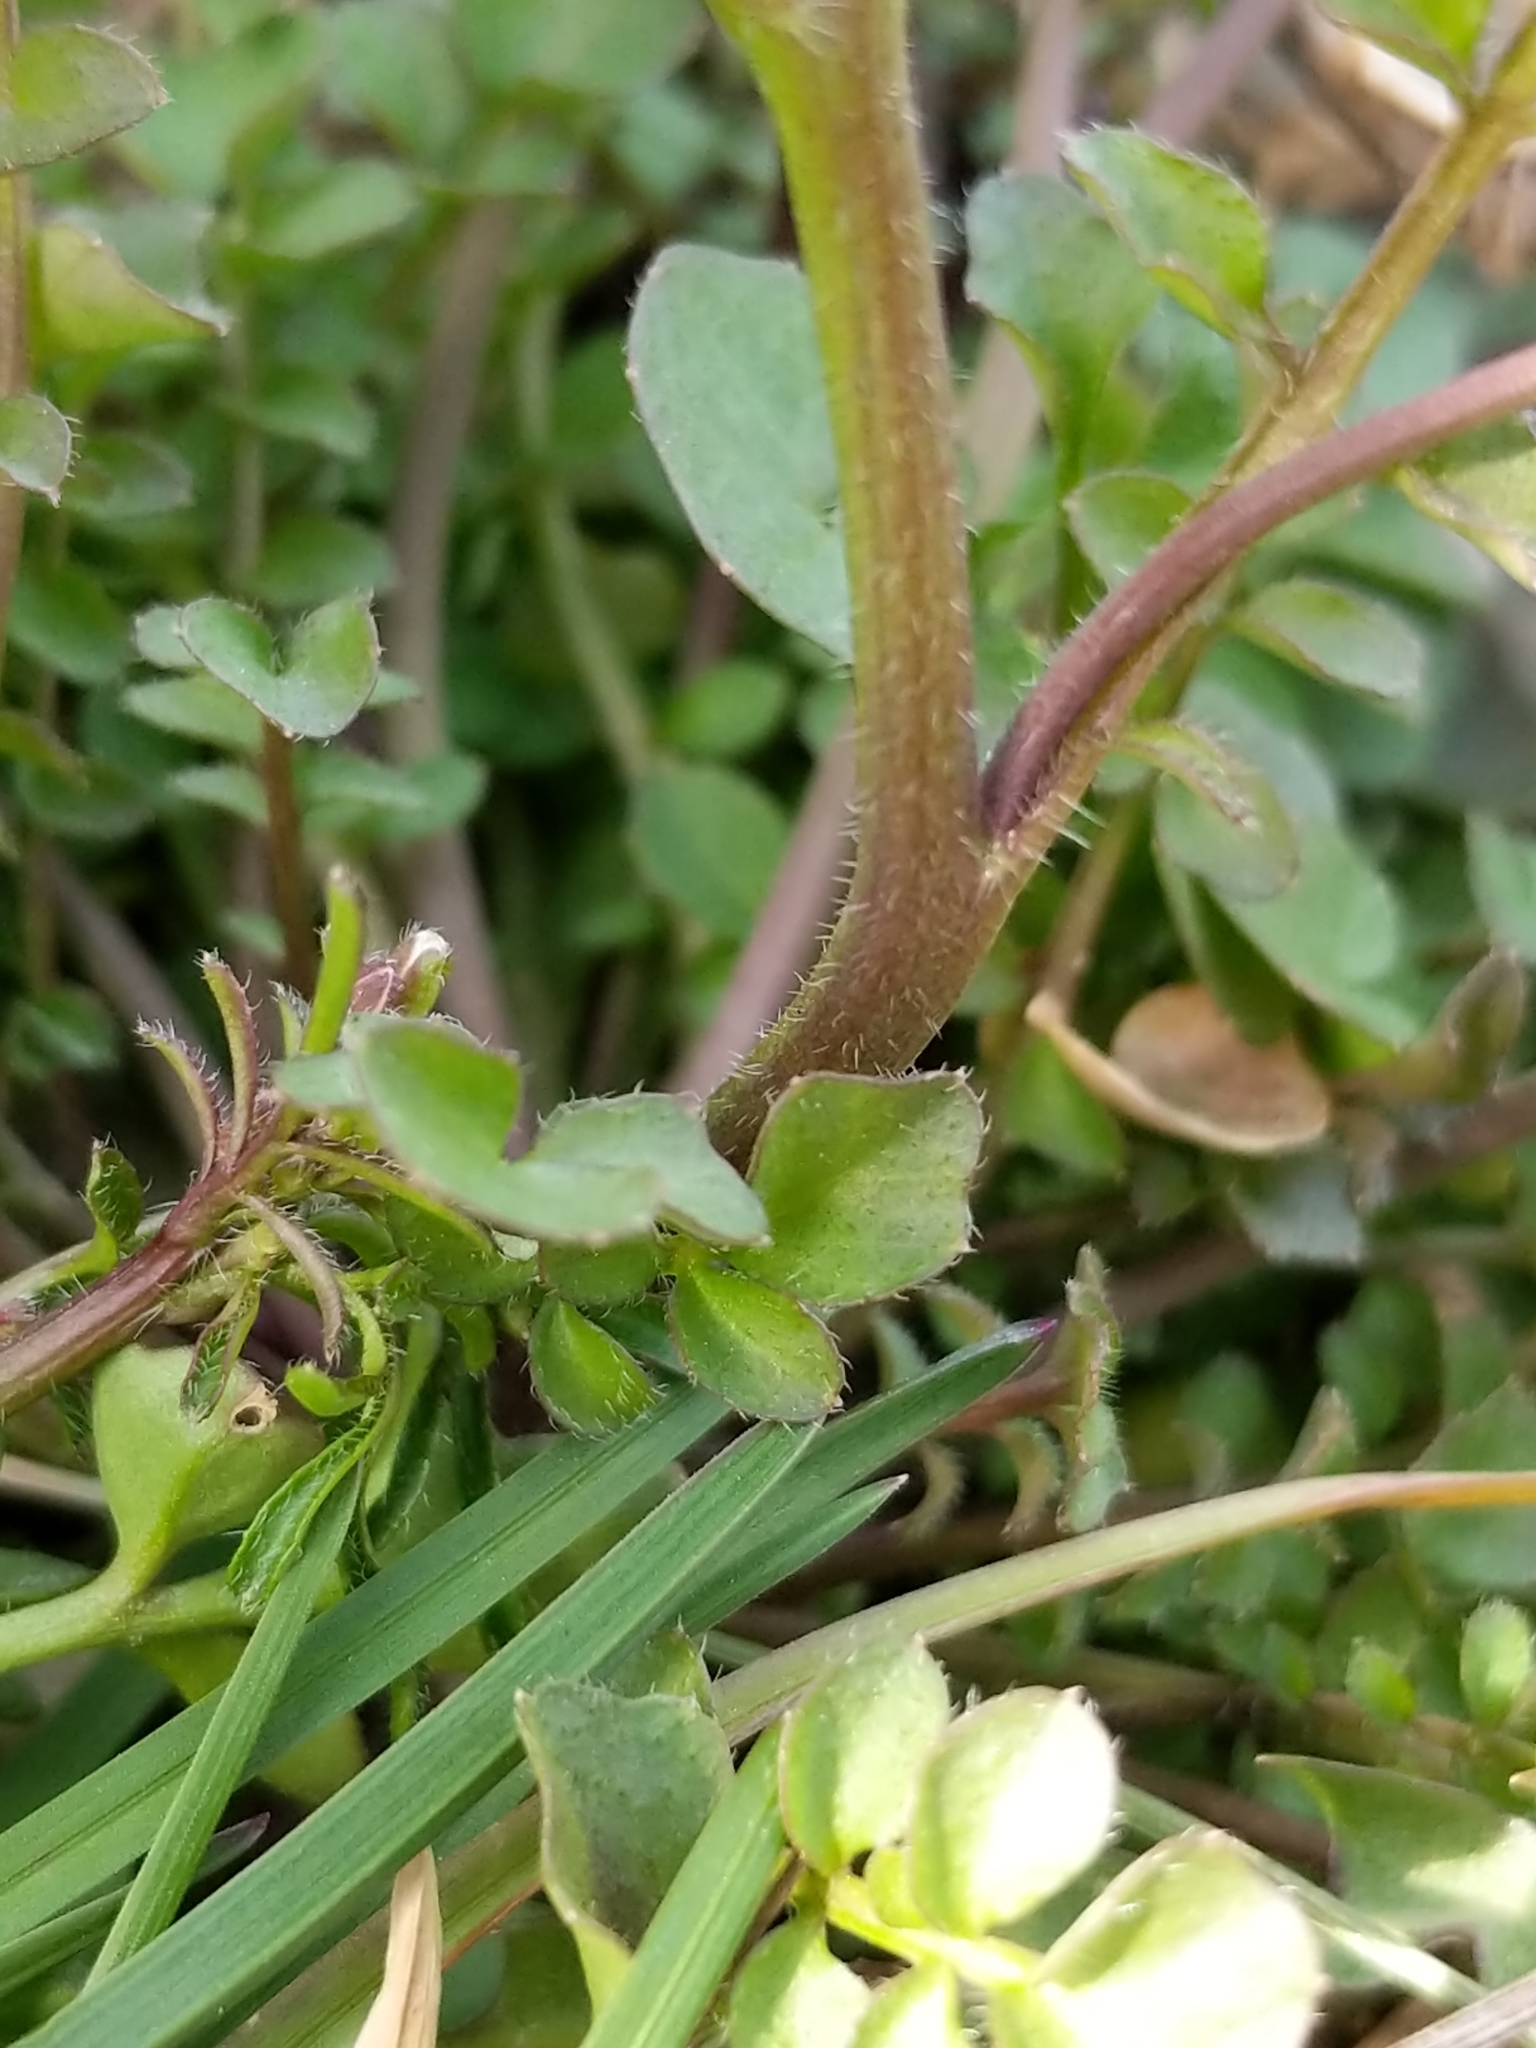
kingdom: Plantae
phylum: Tracheophyta
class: Magnoliopsida
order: Brassicales
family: Brassicaceae
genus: Cardamine
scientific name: Cardamine hirsuta
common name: Hairy bittercress
